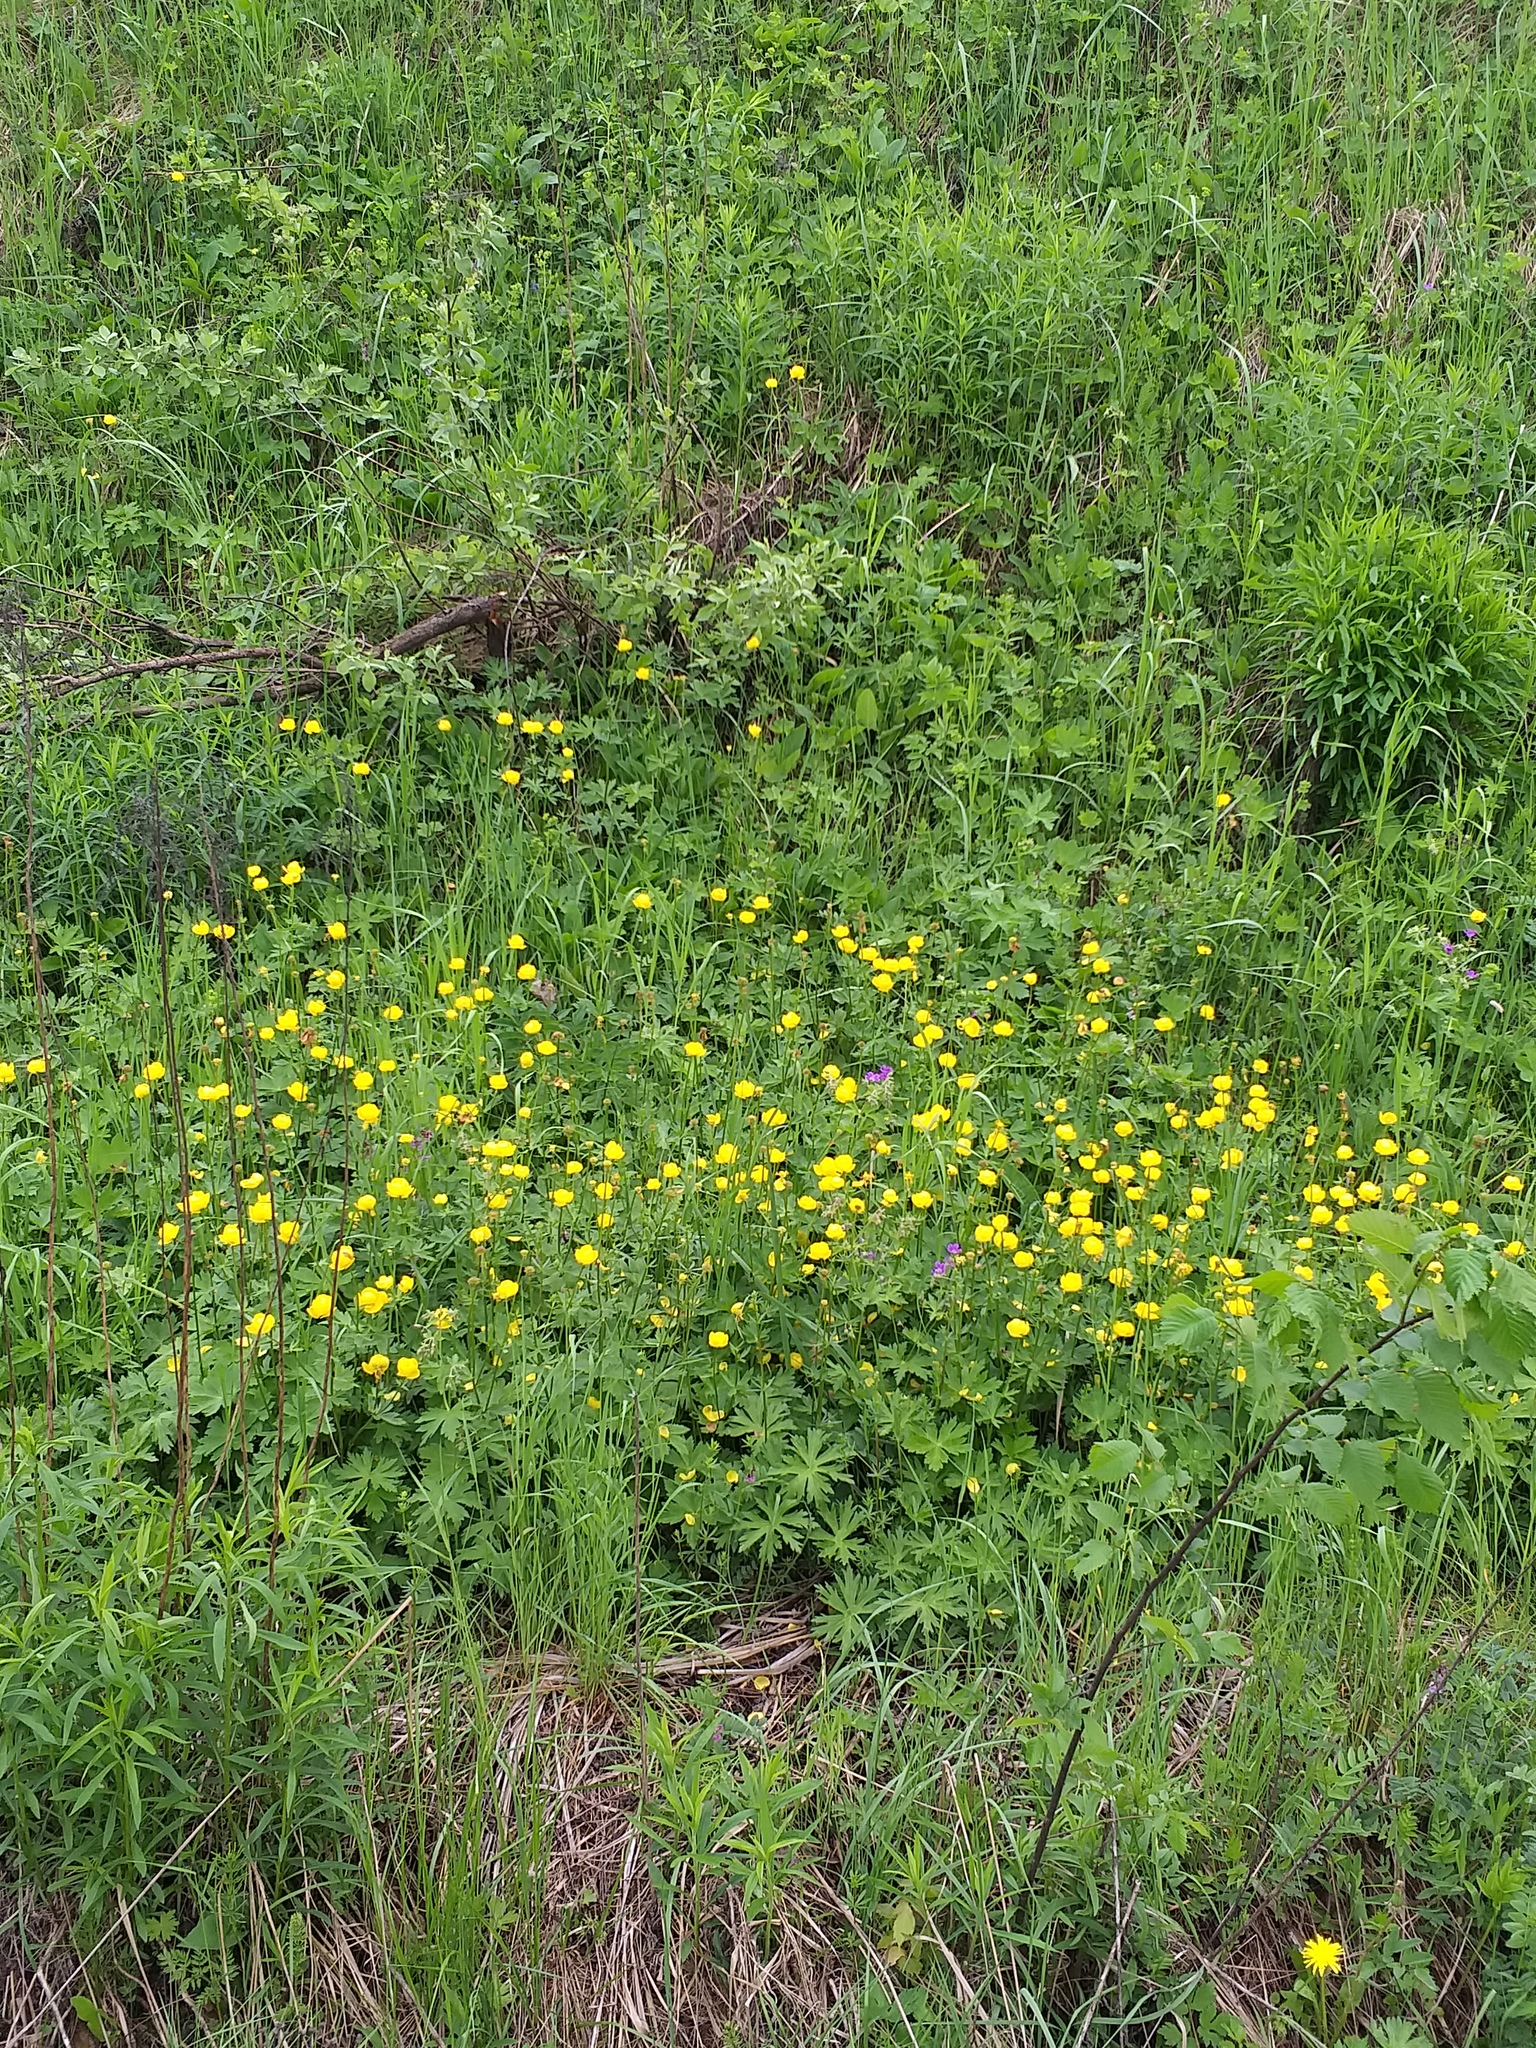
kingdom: Plantae
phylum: Tracheophyta
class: Magnoliopsida
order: Ranunculales
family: Ranunculaceae
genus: Trollius
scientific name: Trollius europaeus
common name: European globeflower
